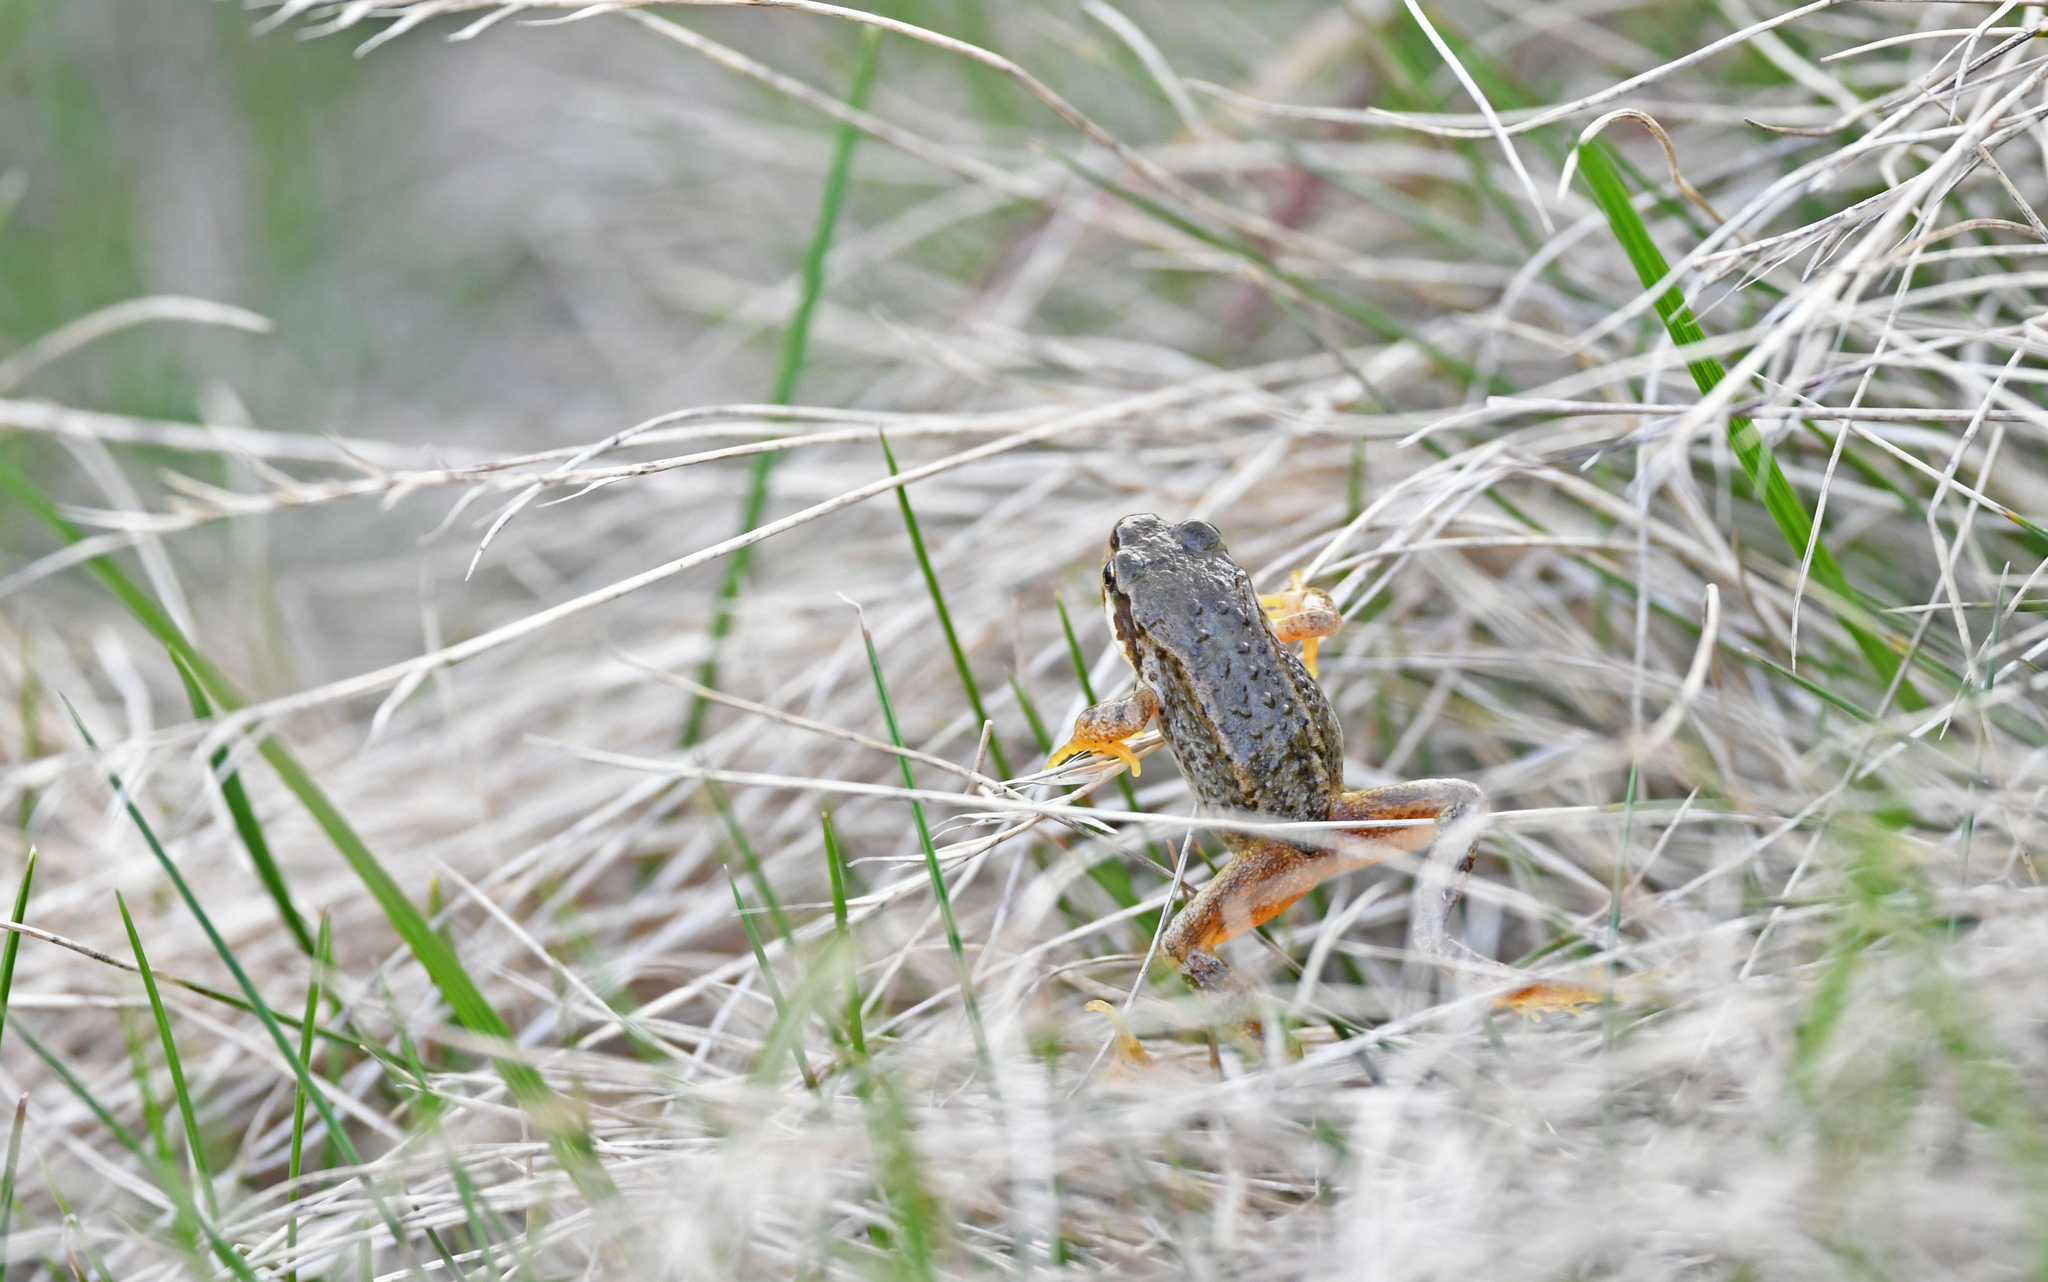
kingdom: Animalia
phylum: Chordata
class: Amphibia
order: Anura
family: Ranidae
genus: Rana
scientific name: Rana temporaria
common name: Common frog
